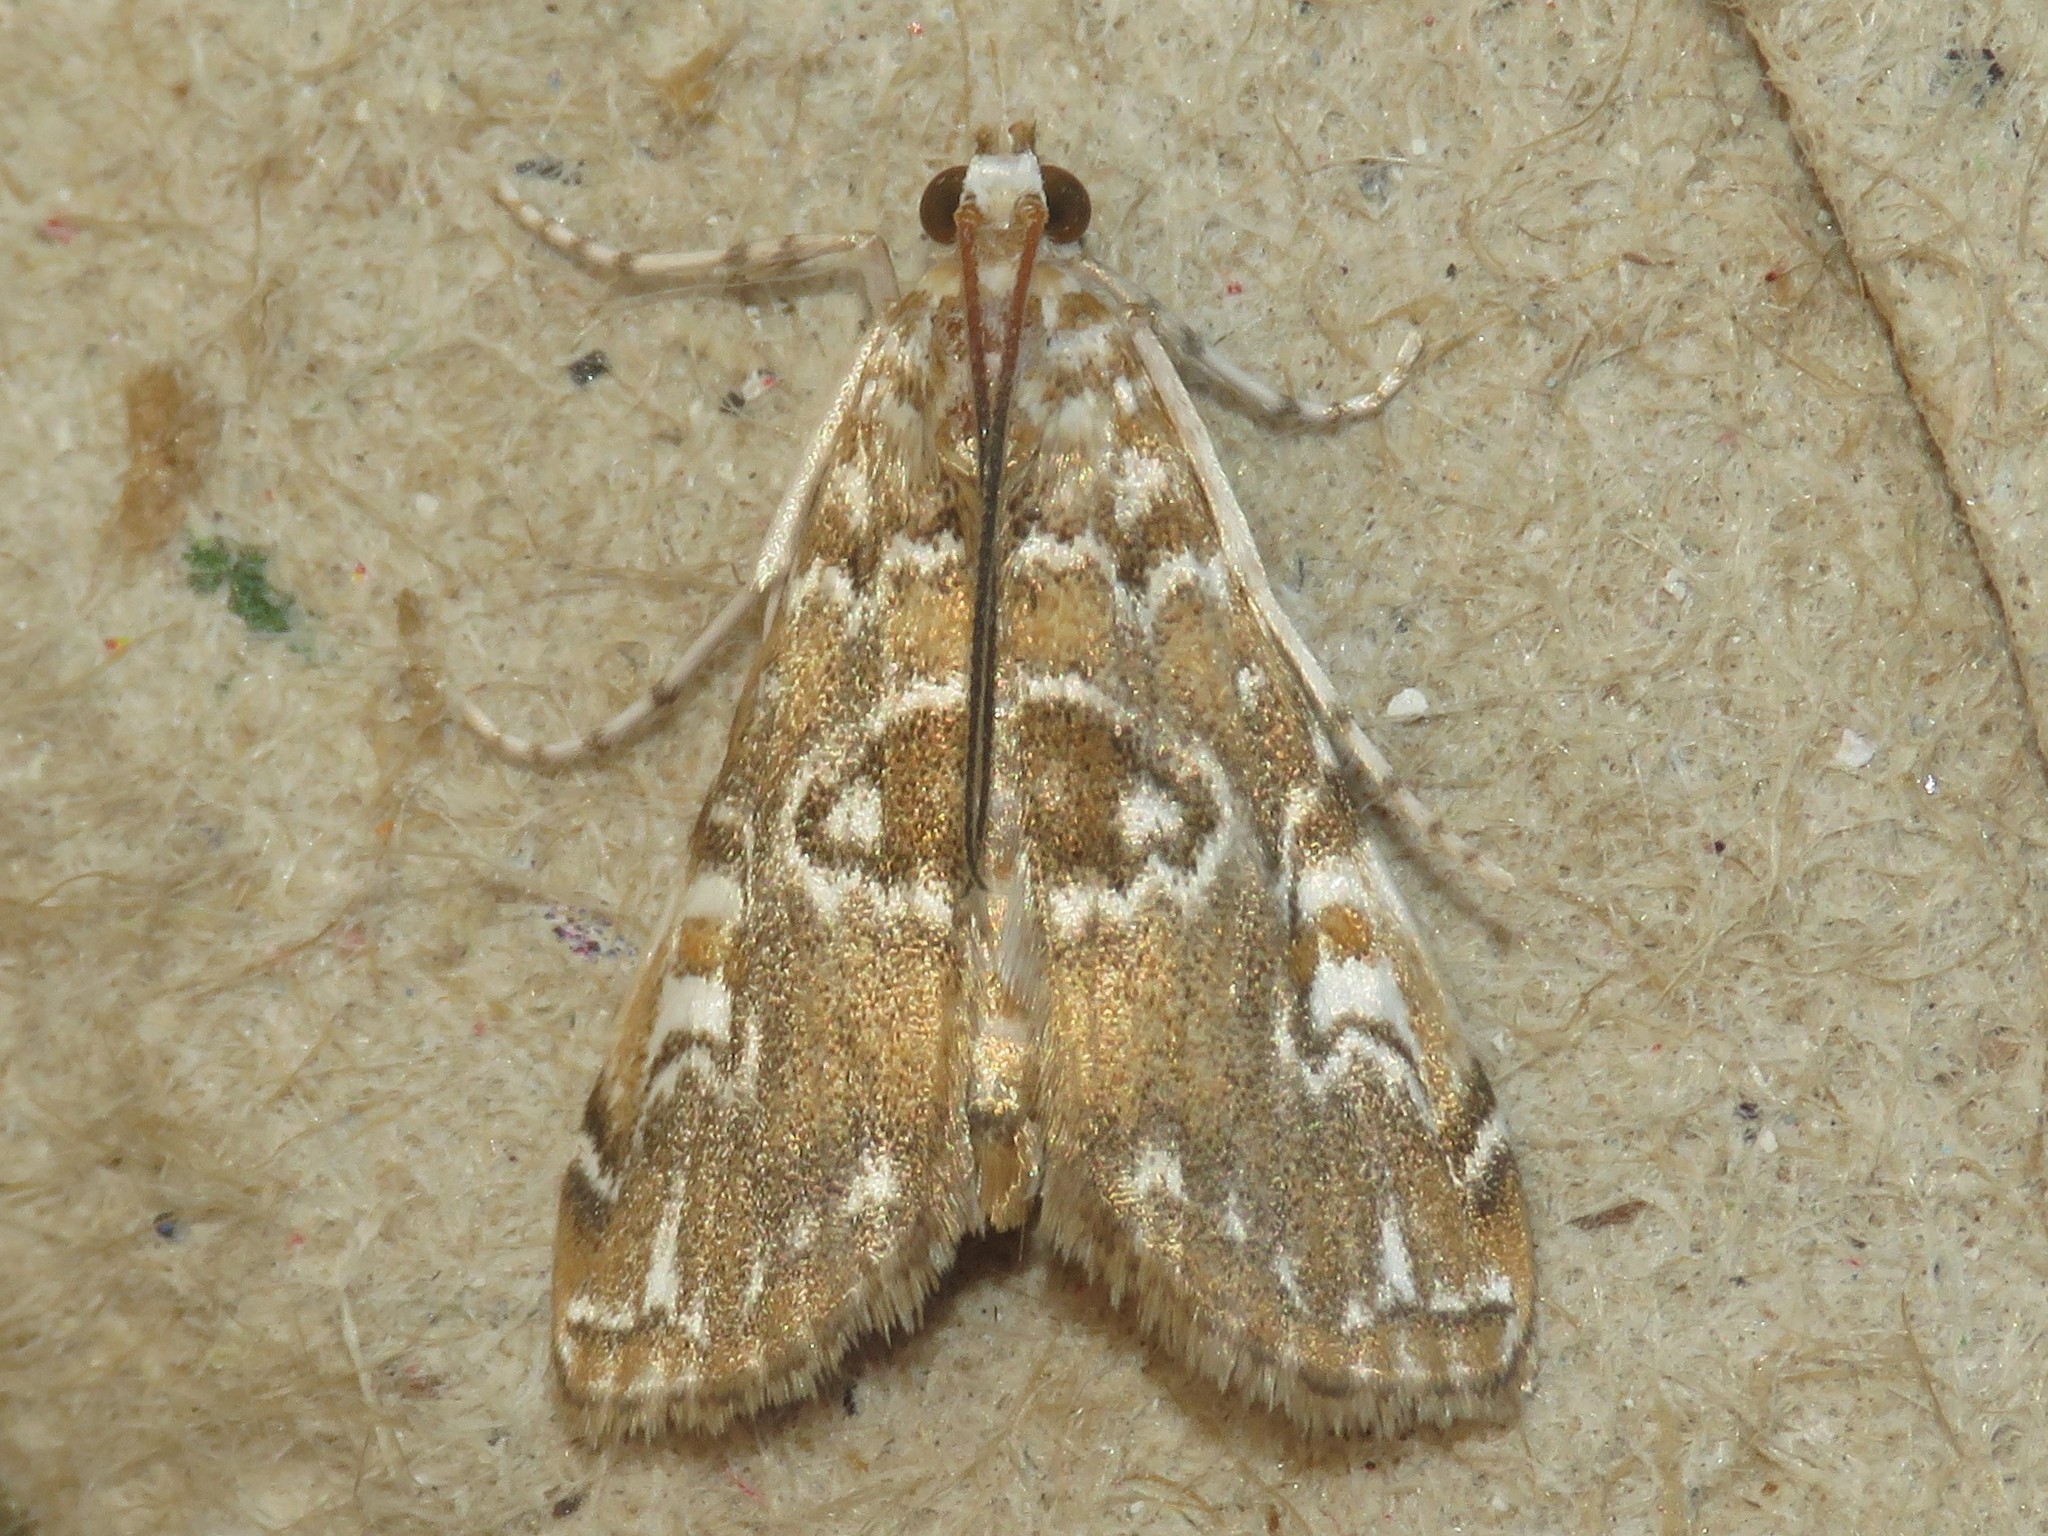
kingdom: Animalia
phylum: Arthropoda
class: Insecta
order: Lepidoptera
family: Crambidae
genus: Elophila
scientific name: Elophila gyralis
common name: Waterlily borer moth
